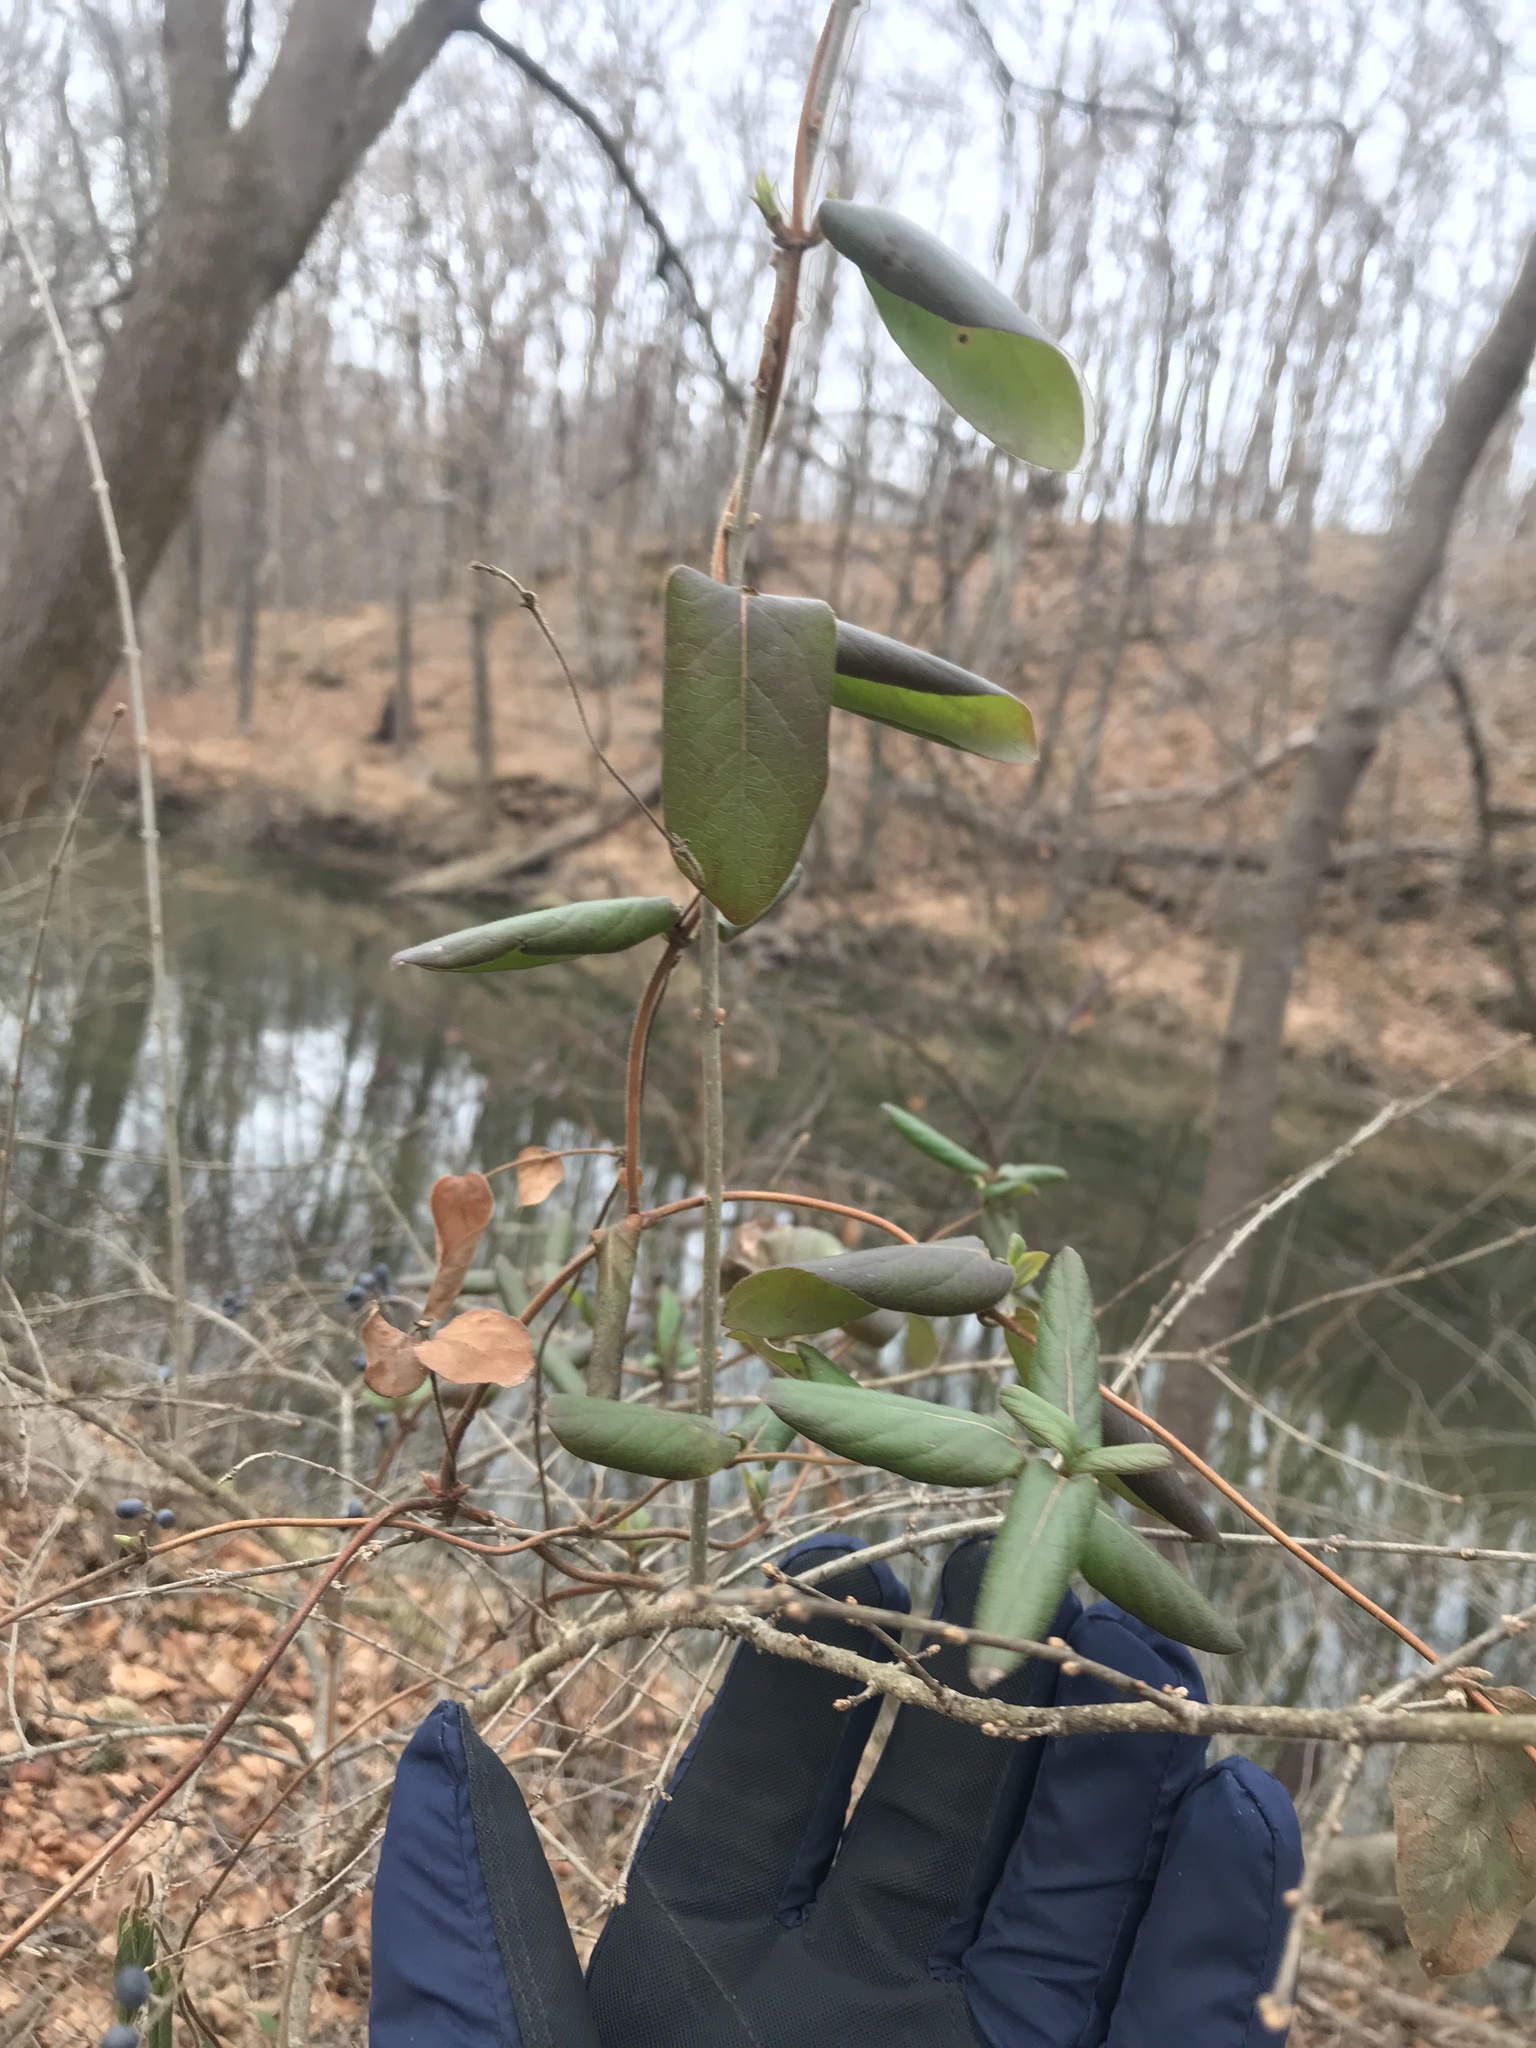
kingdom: Plantae
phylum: Tracheophyta
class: Magnoliopsida
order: Dipsacales
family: Caprifoliaceae
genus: Lonicera
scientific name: Lonicera japonica
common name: Japanese honeysuckle
